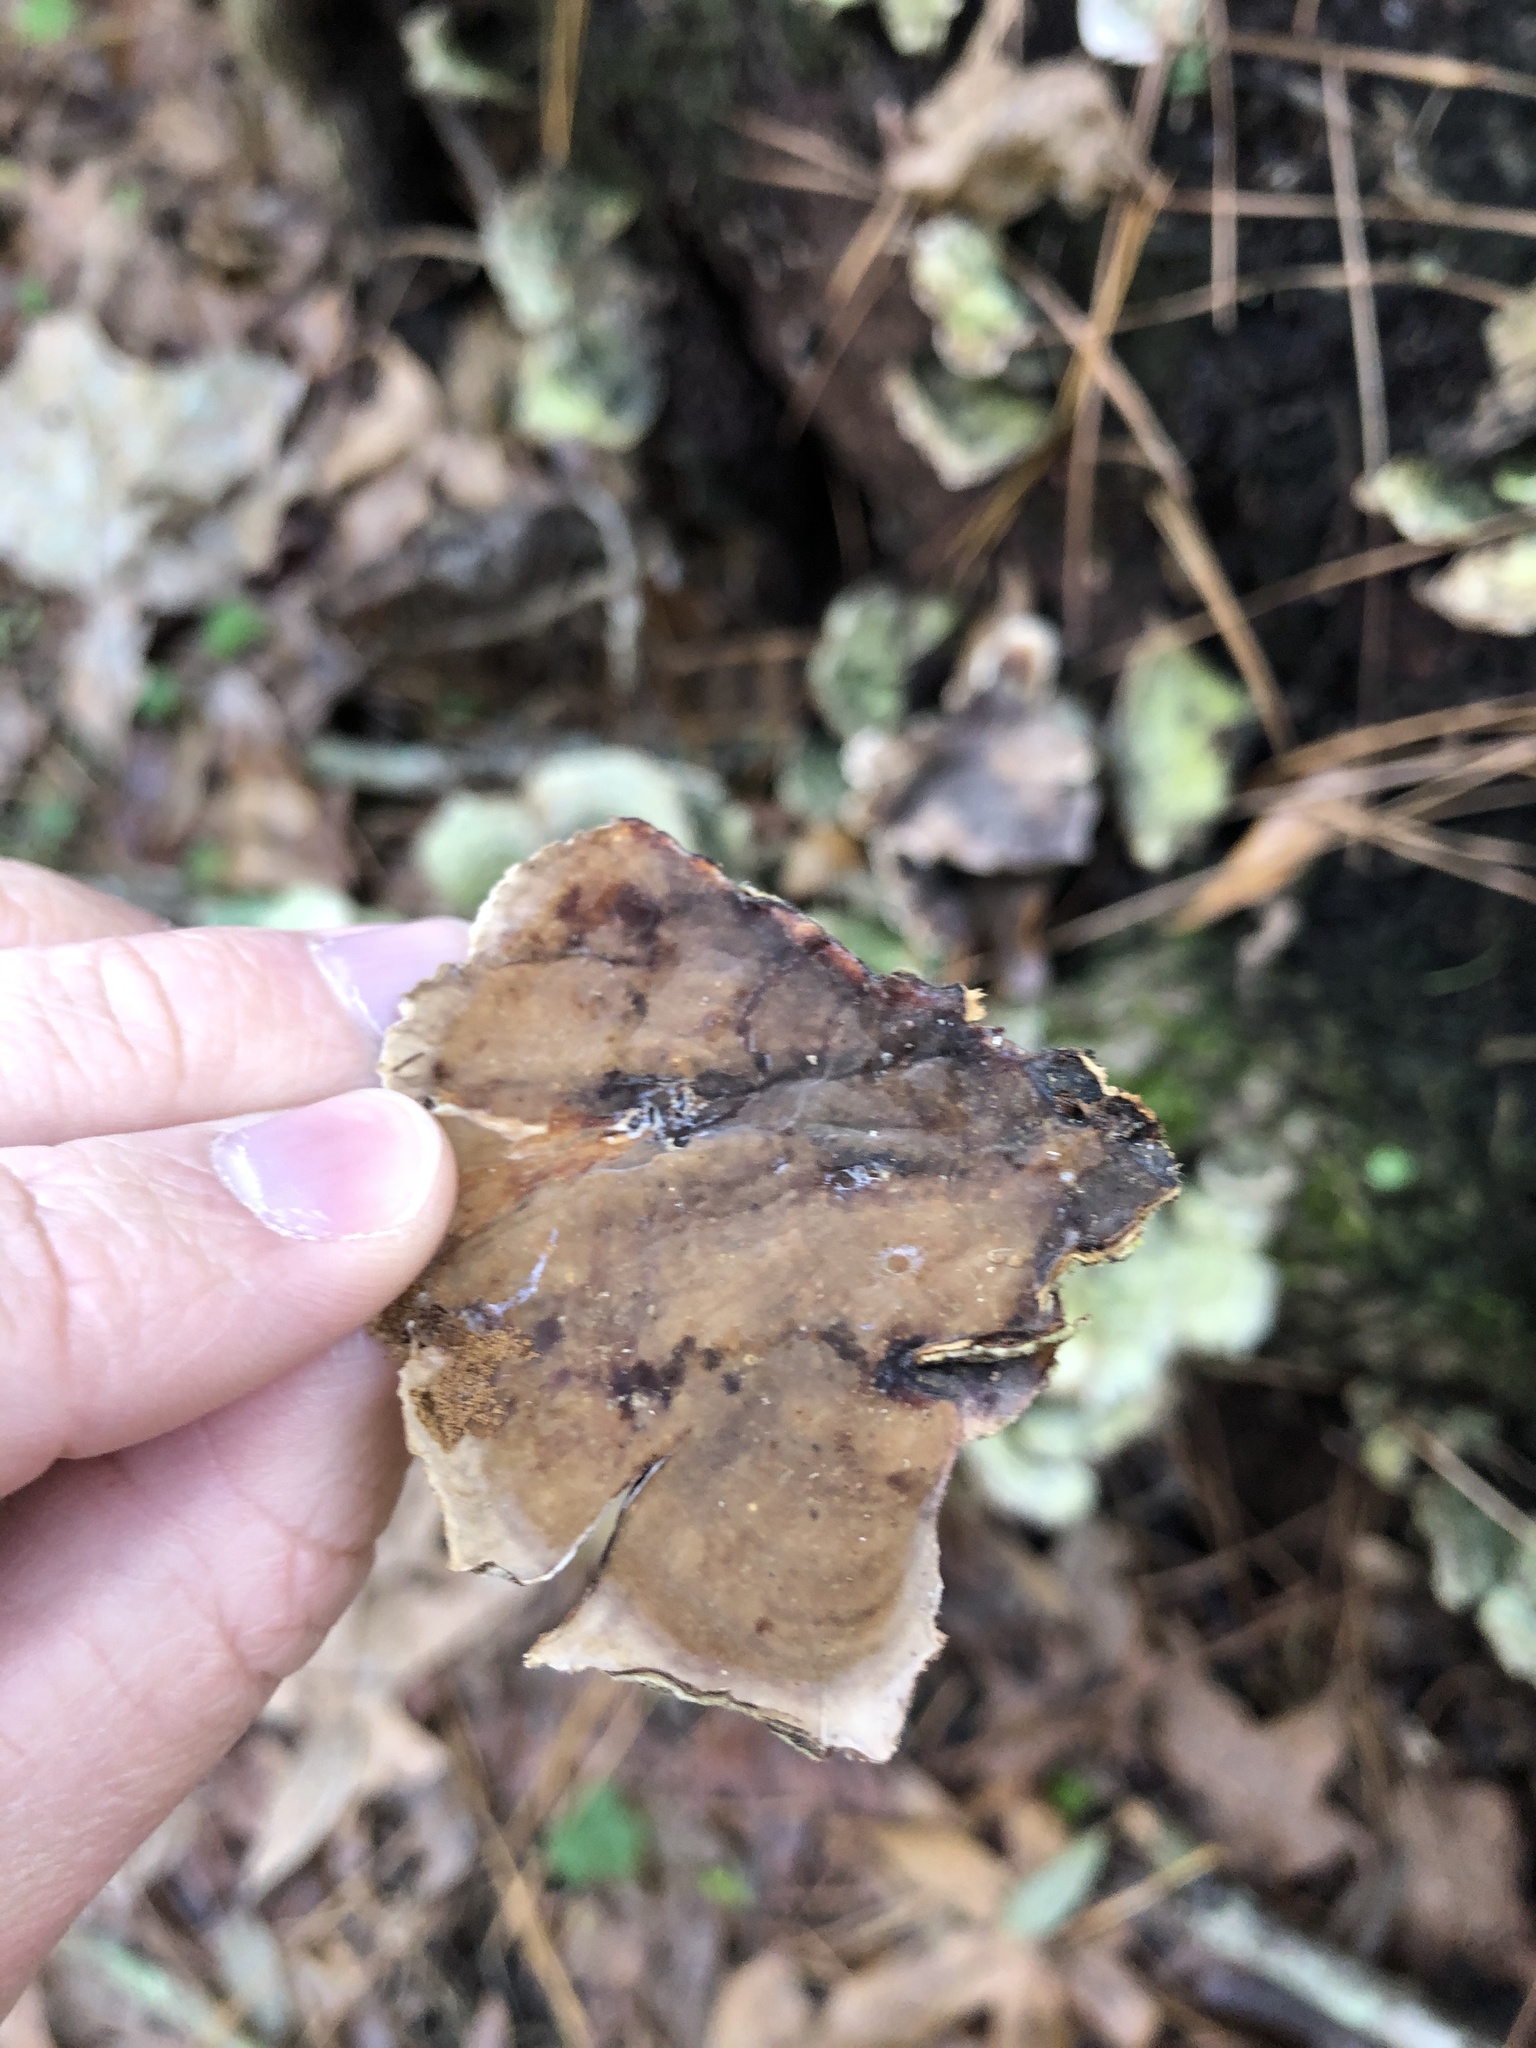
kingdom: Fungi
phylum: Basidiomycota
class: Agaricomycetes
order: Polyporales
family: Polyporaceae
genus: Trametes
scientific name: Trametes versicolor
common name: Turkeytail
